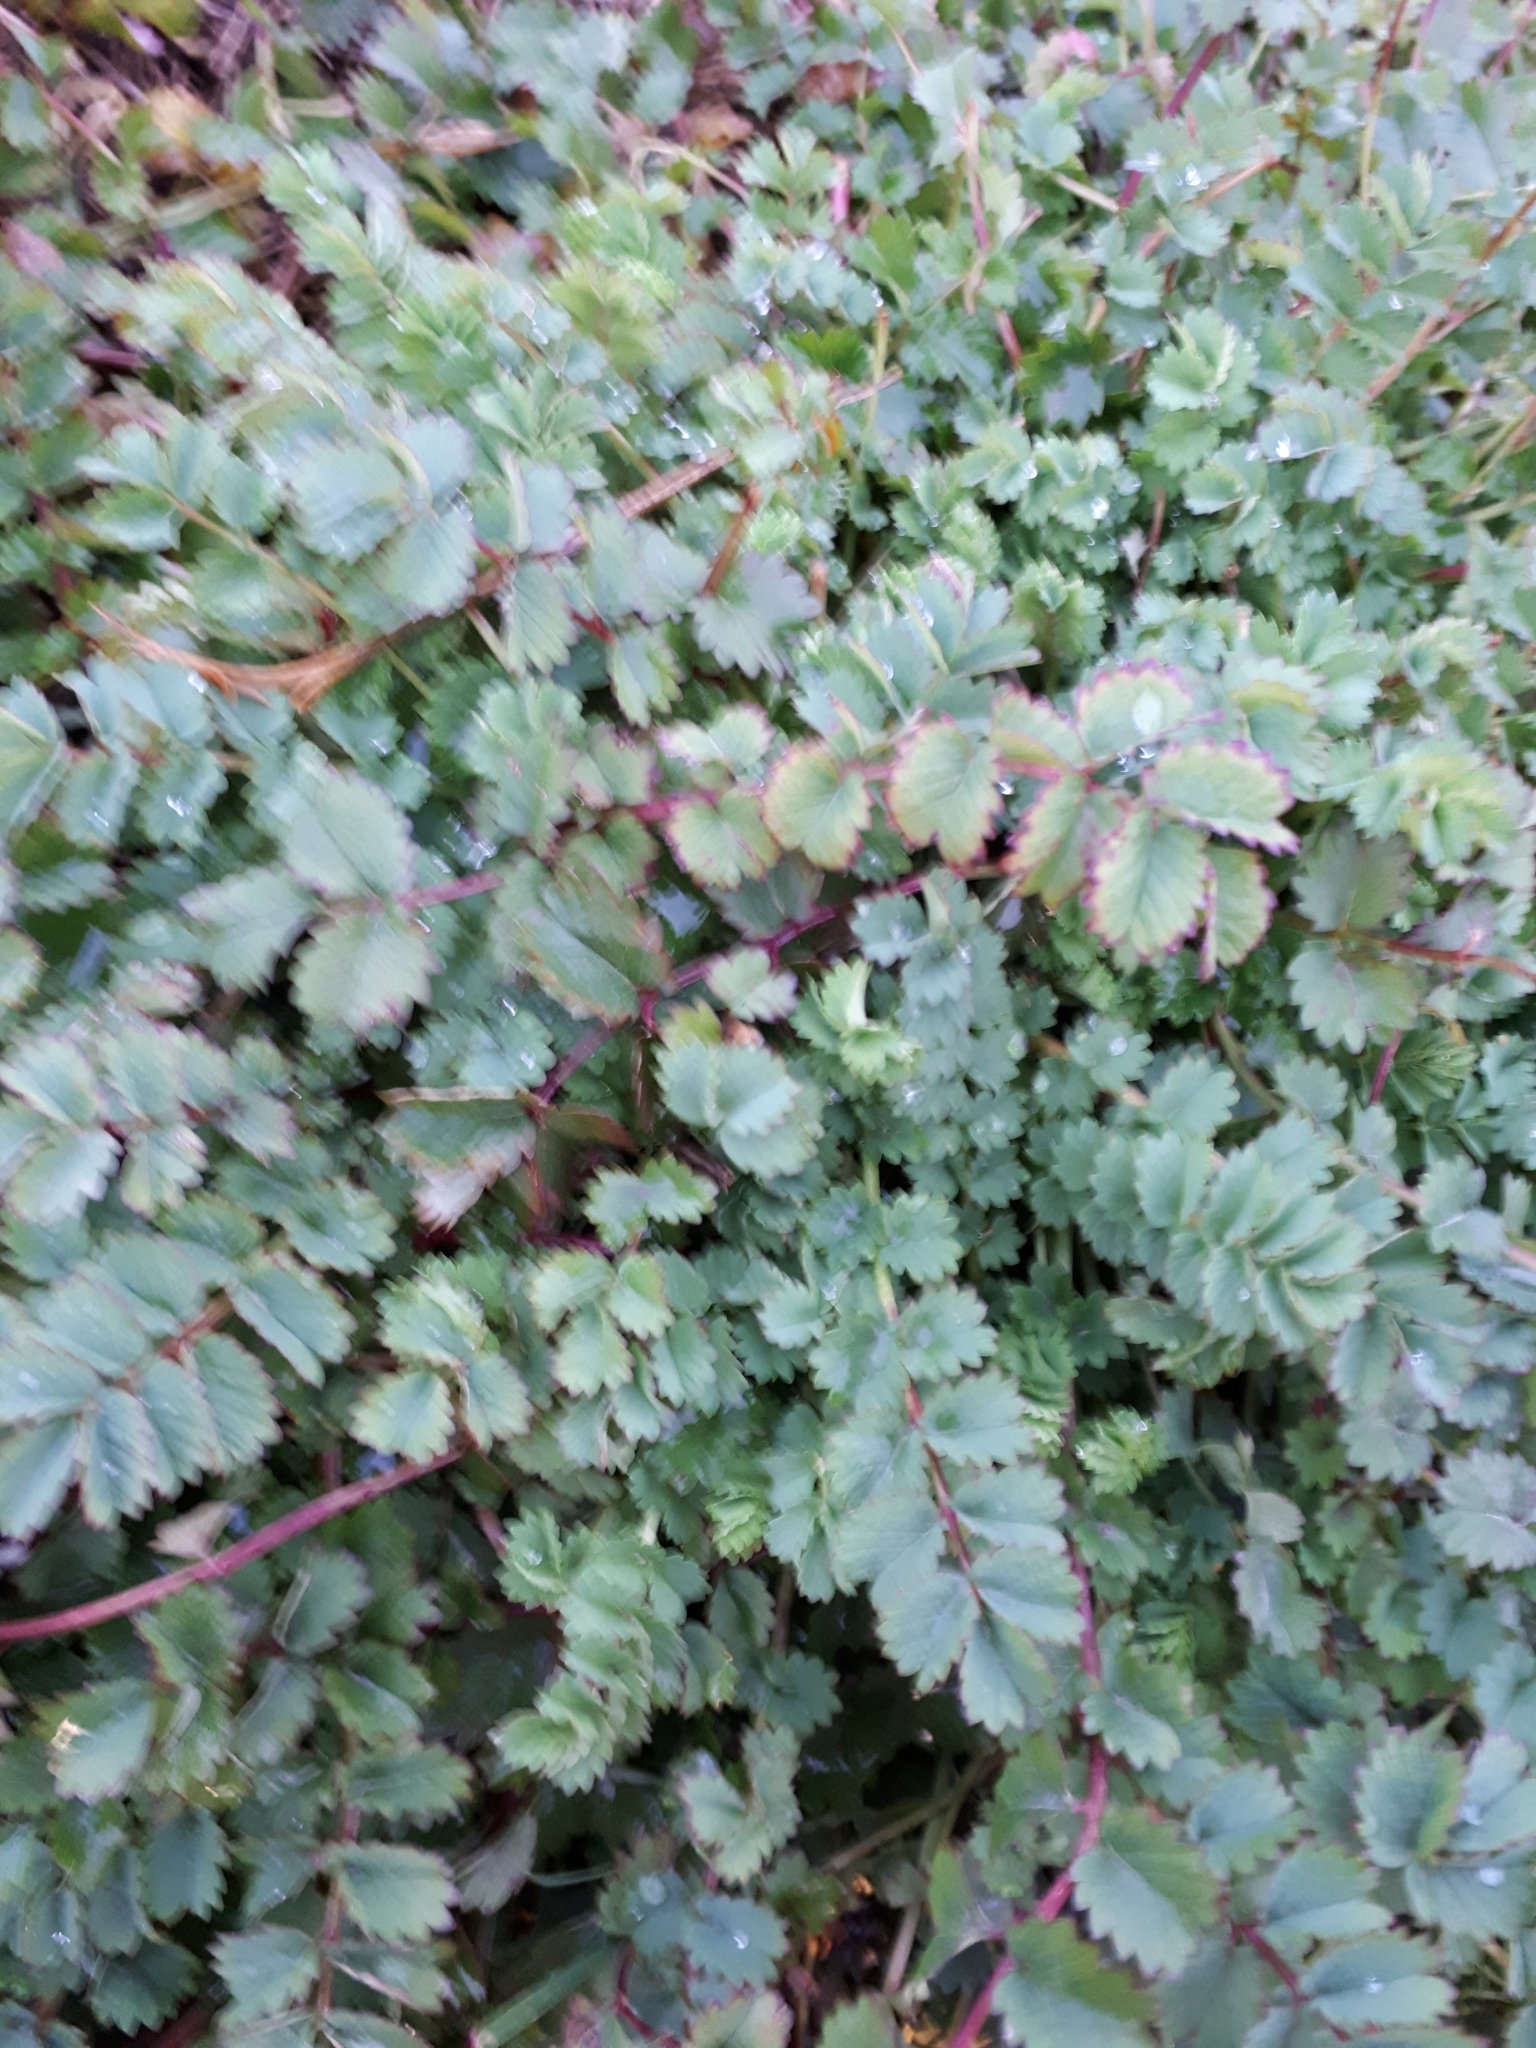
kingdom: Plantae
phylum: Tracheophyta
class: Magnoliopsida
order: Rosales
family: Rosaceae
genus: Poterium
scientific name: Poterium sanguisorba
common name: Salad burnet
